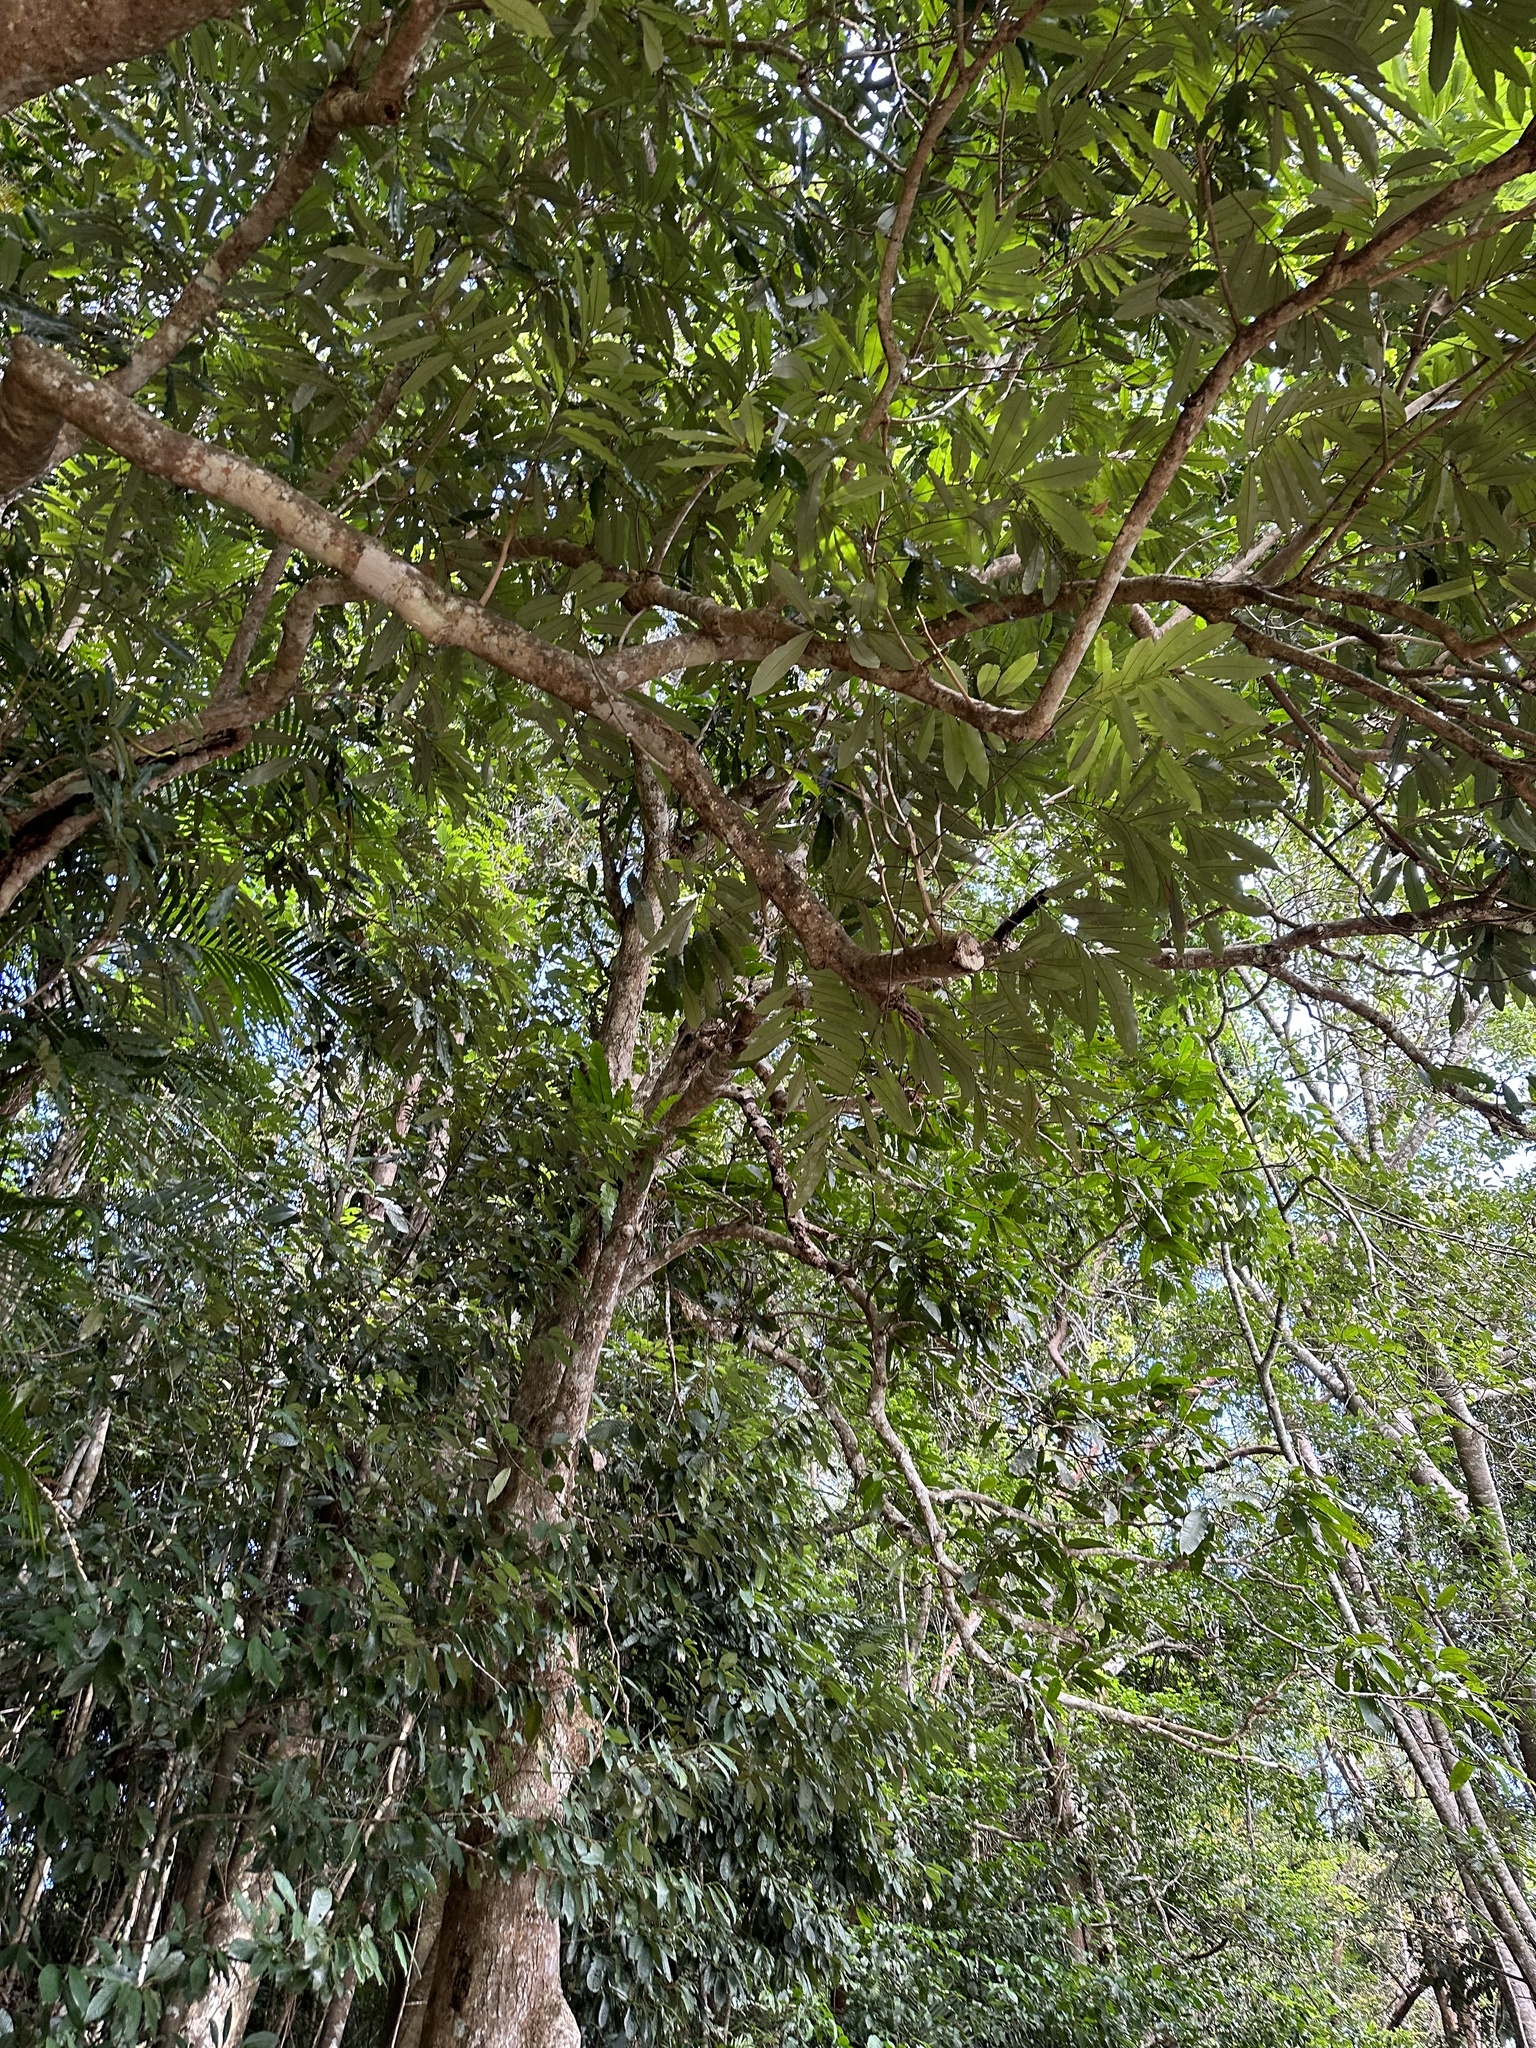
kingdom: Plantae
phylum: Tracheophyta
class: Magnoliopsida
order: Sapindales
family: Sapindaceae
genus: Castanospora
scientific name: Castanospora alphandii
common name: Brown-tamarind
